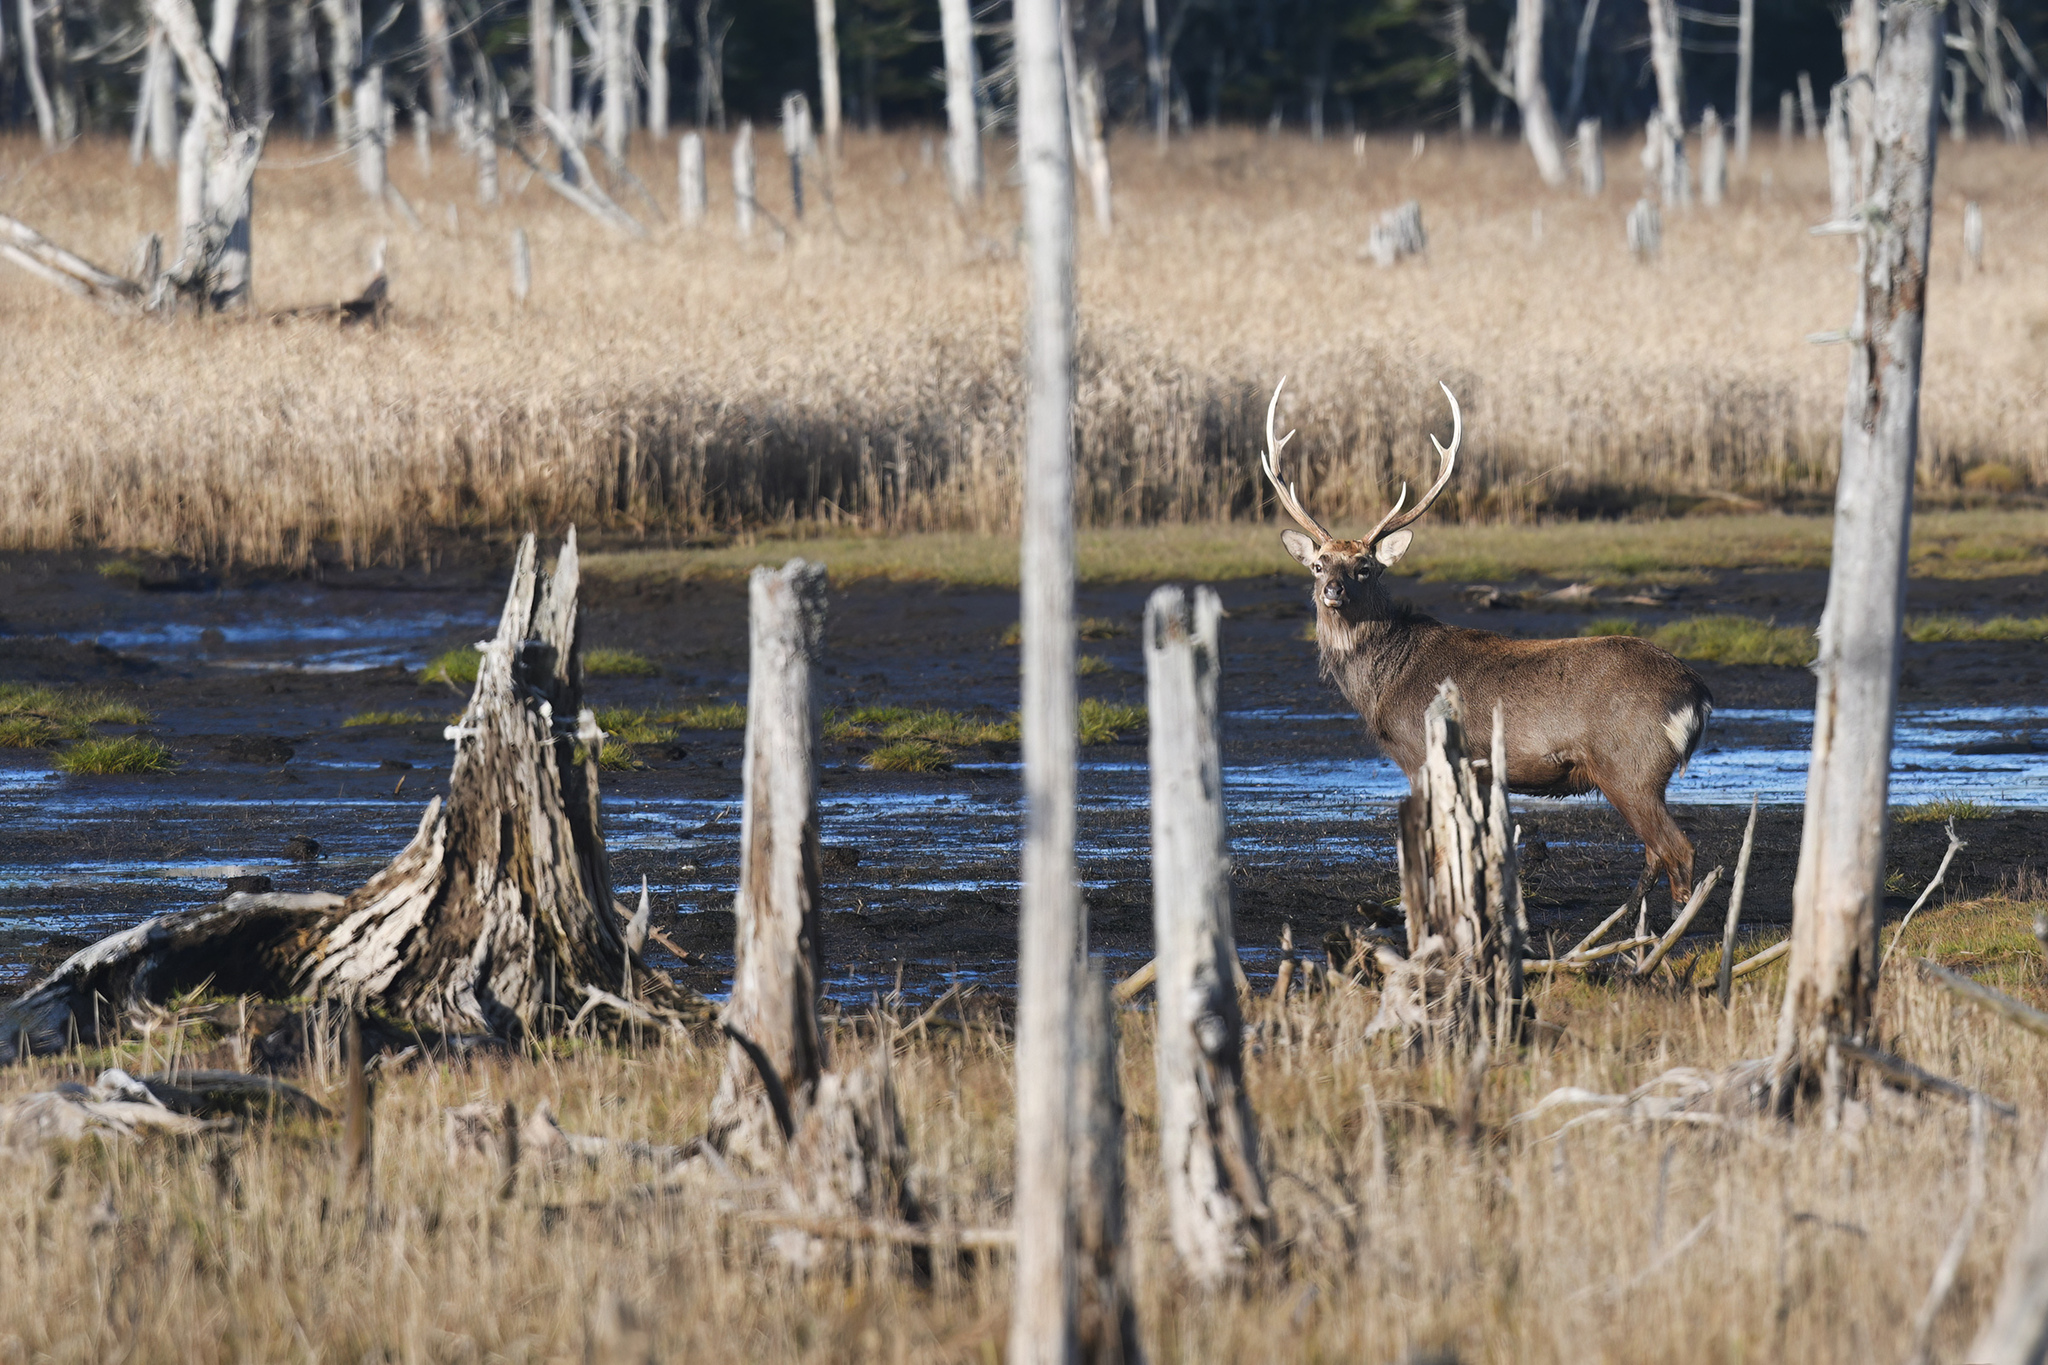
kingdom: Animalia
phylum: Chordata
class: Mammalia
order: Artiodactyla
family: Cervidae
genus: Cervus
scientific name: Cervus nippon
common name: Sika deer
